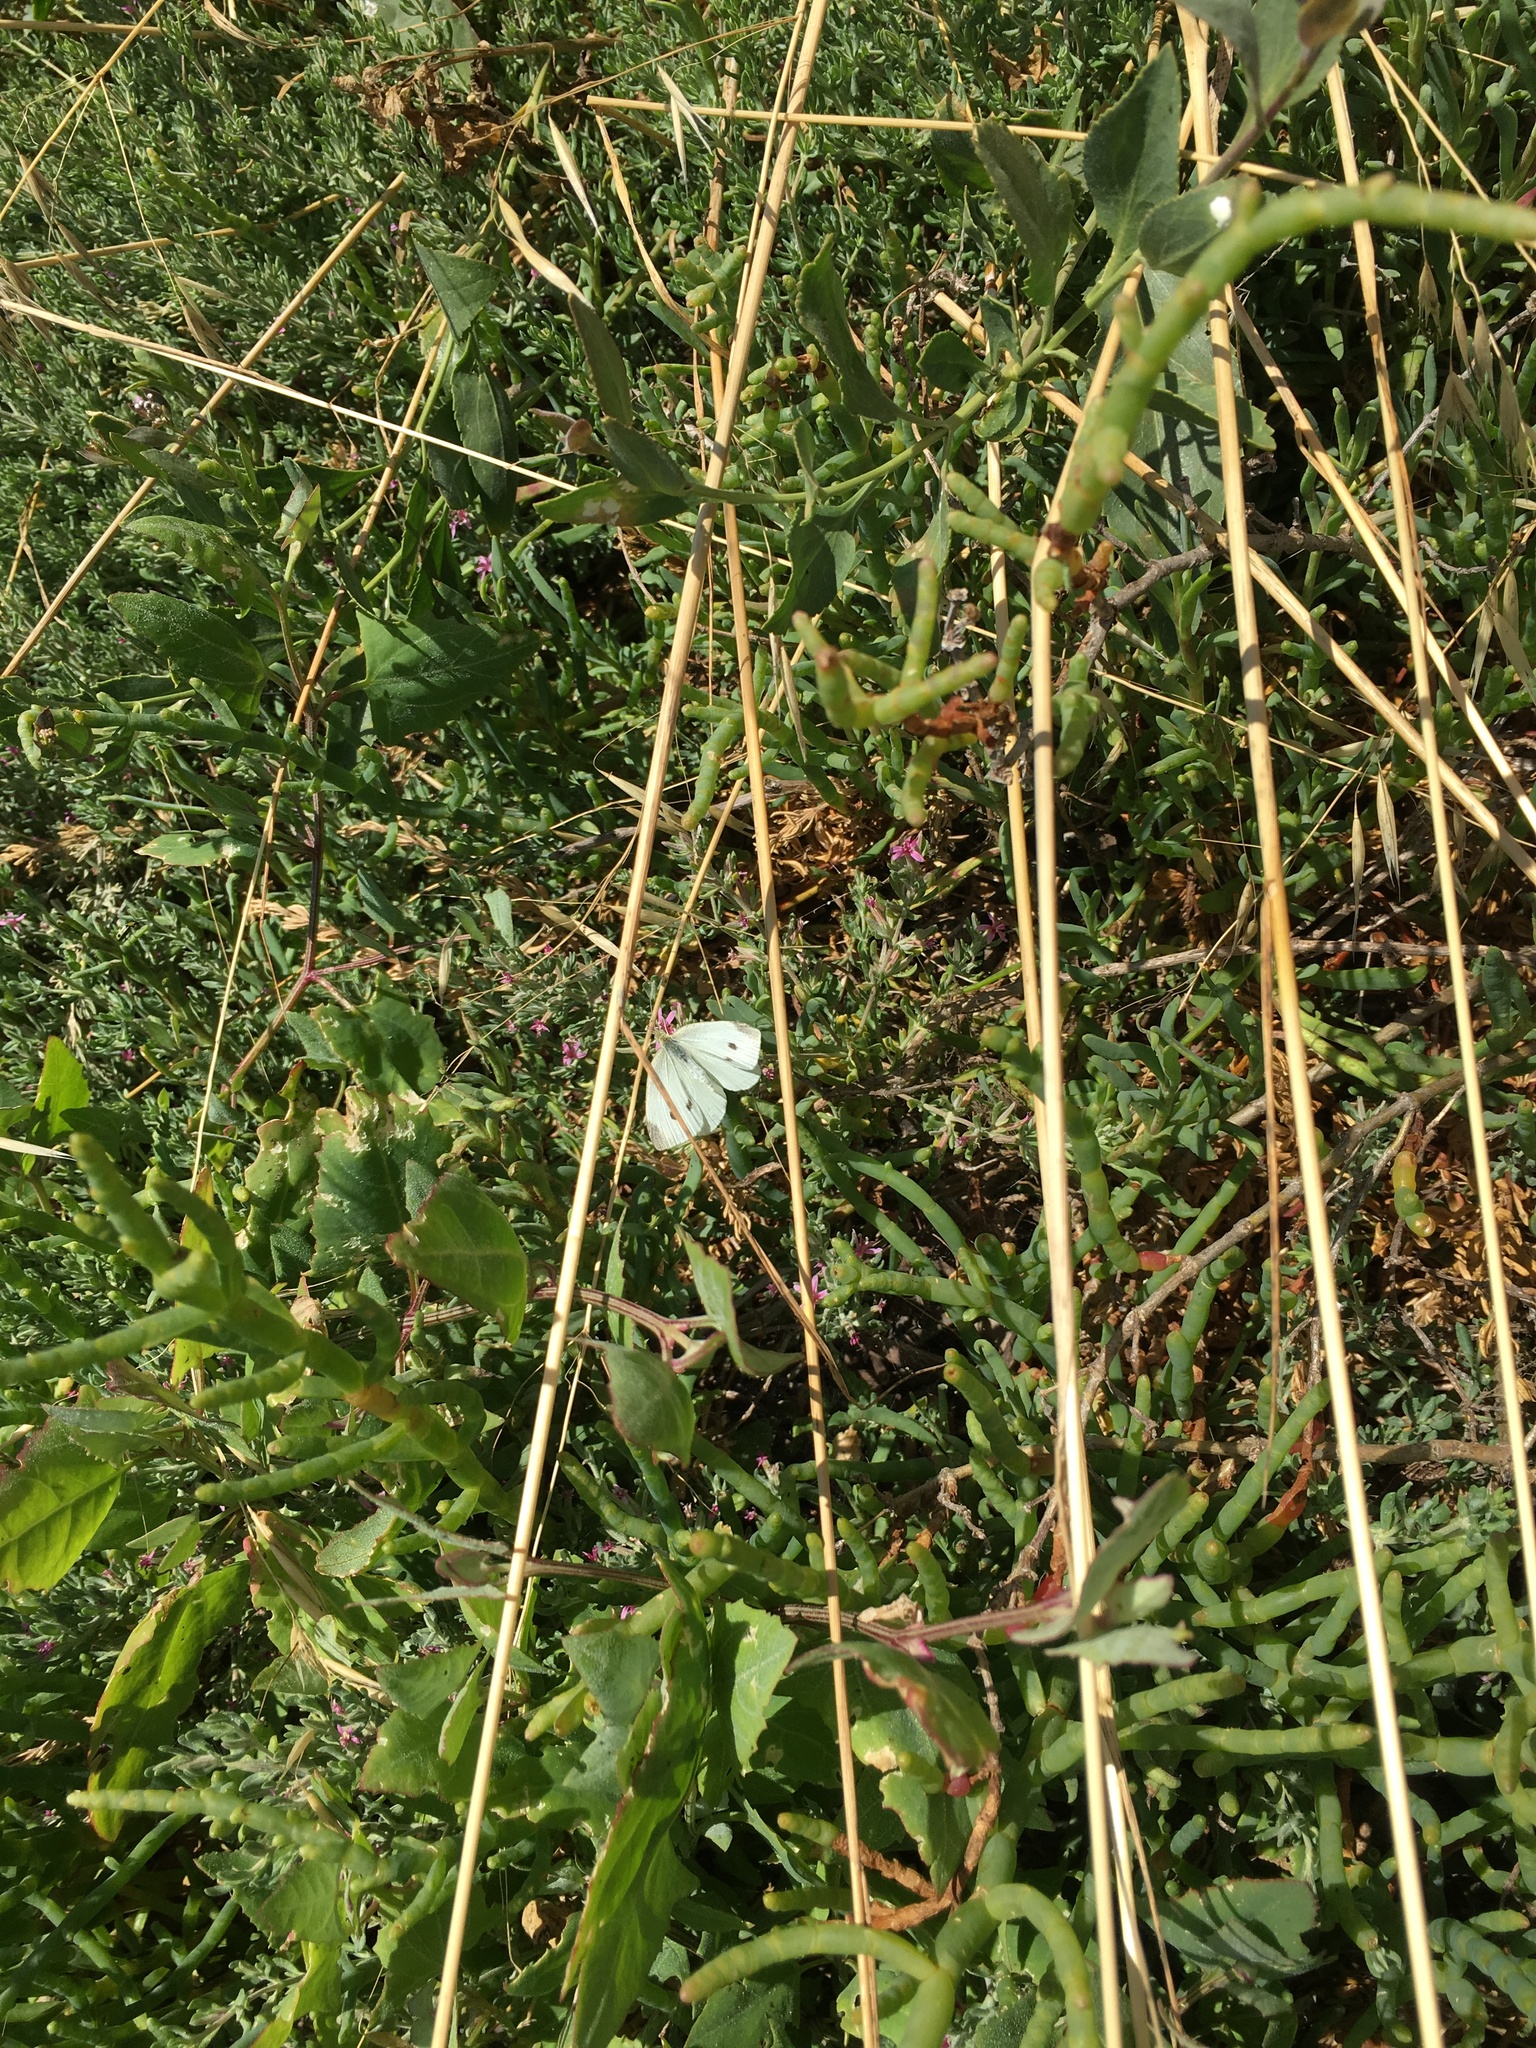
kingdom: Animalia
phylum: Arthropoda
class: Insecta
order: Lepidoptera
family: Pieridae
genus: Pieris
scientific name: Pieris rapae
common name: Small white
